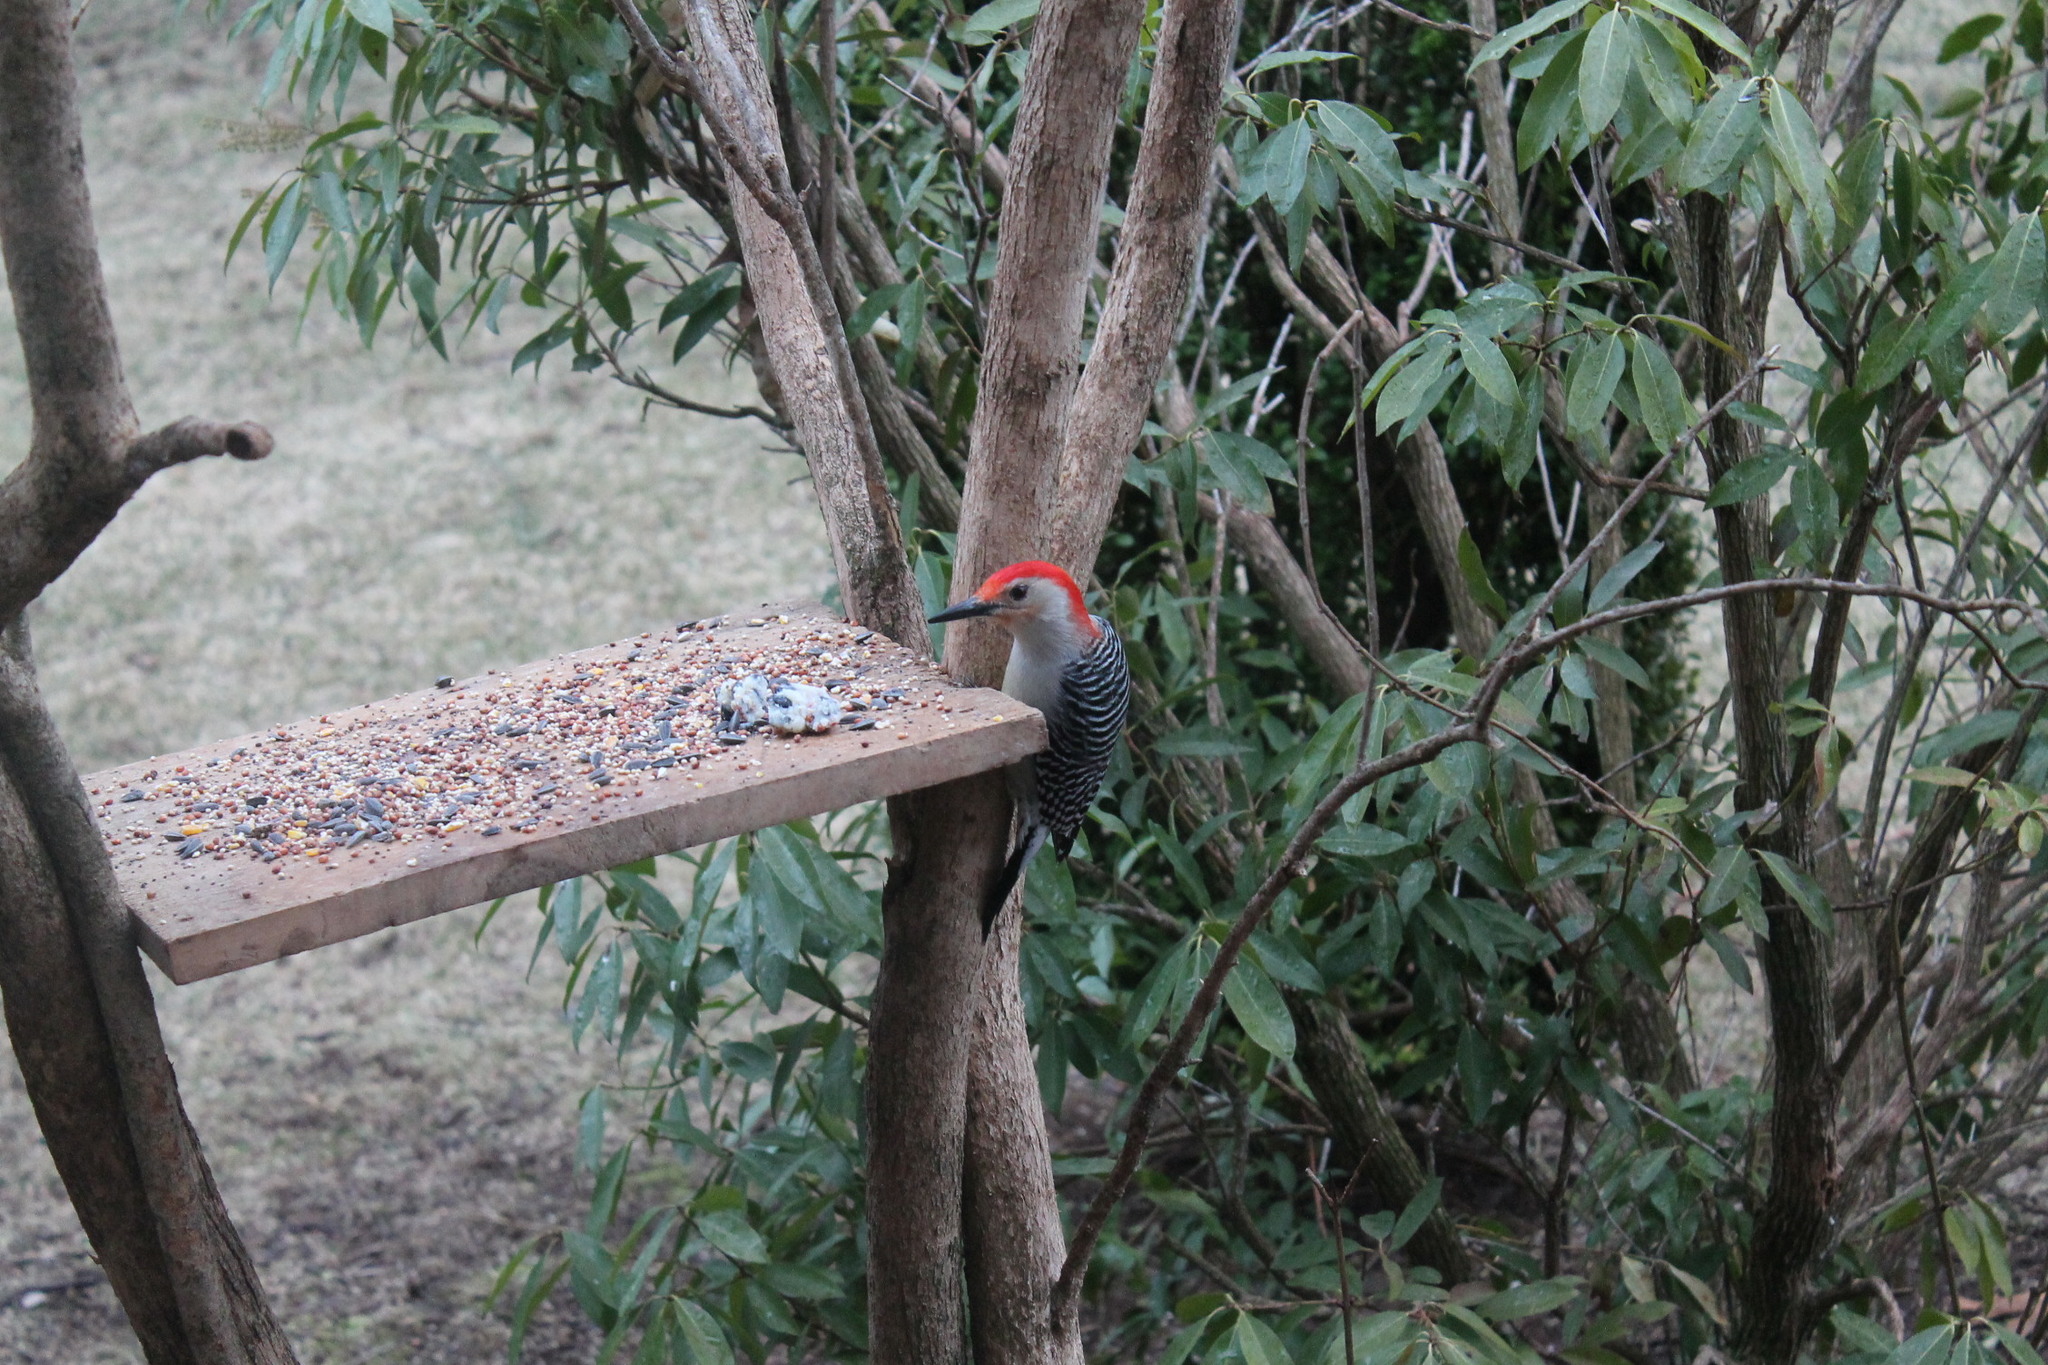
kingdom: Animalia
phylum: Chordata
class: Aves
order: Piciformes
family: Picidae
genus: Melanerpes
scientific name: Melanerpes carolinus
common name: Red-bellied woodpecker
